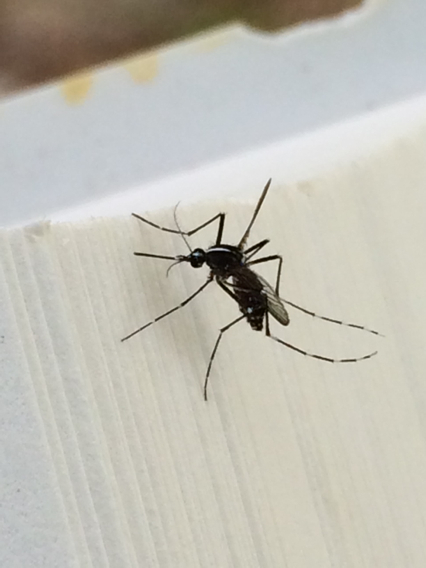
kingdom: Animalia
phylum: Arthropoda
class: Insecta
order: Diptera
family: Culicidae
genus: Aedes
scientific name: Aedes albopictus
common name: Tiger mosquito
